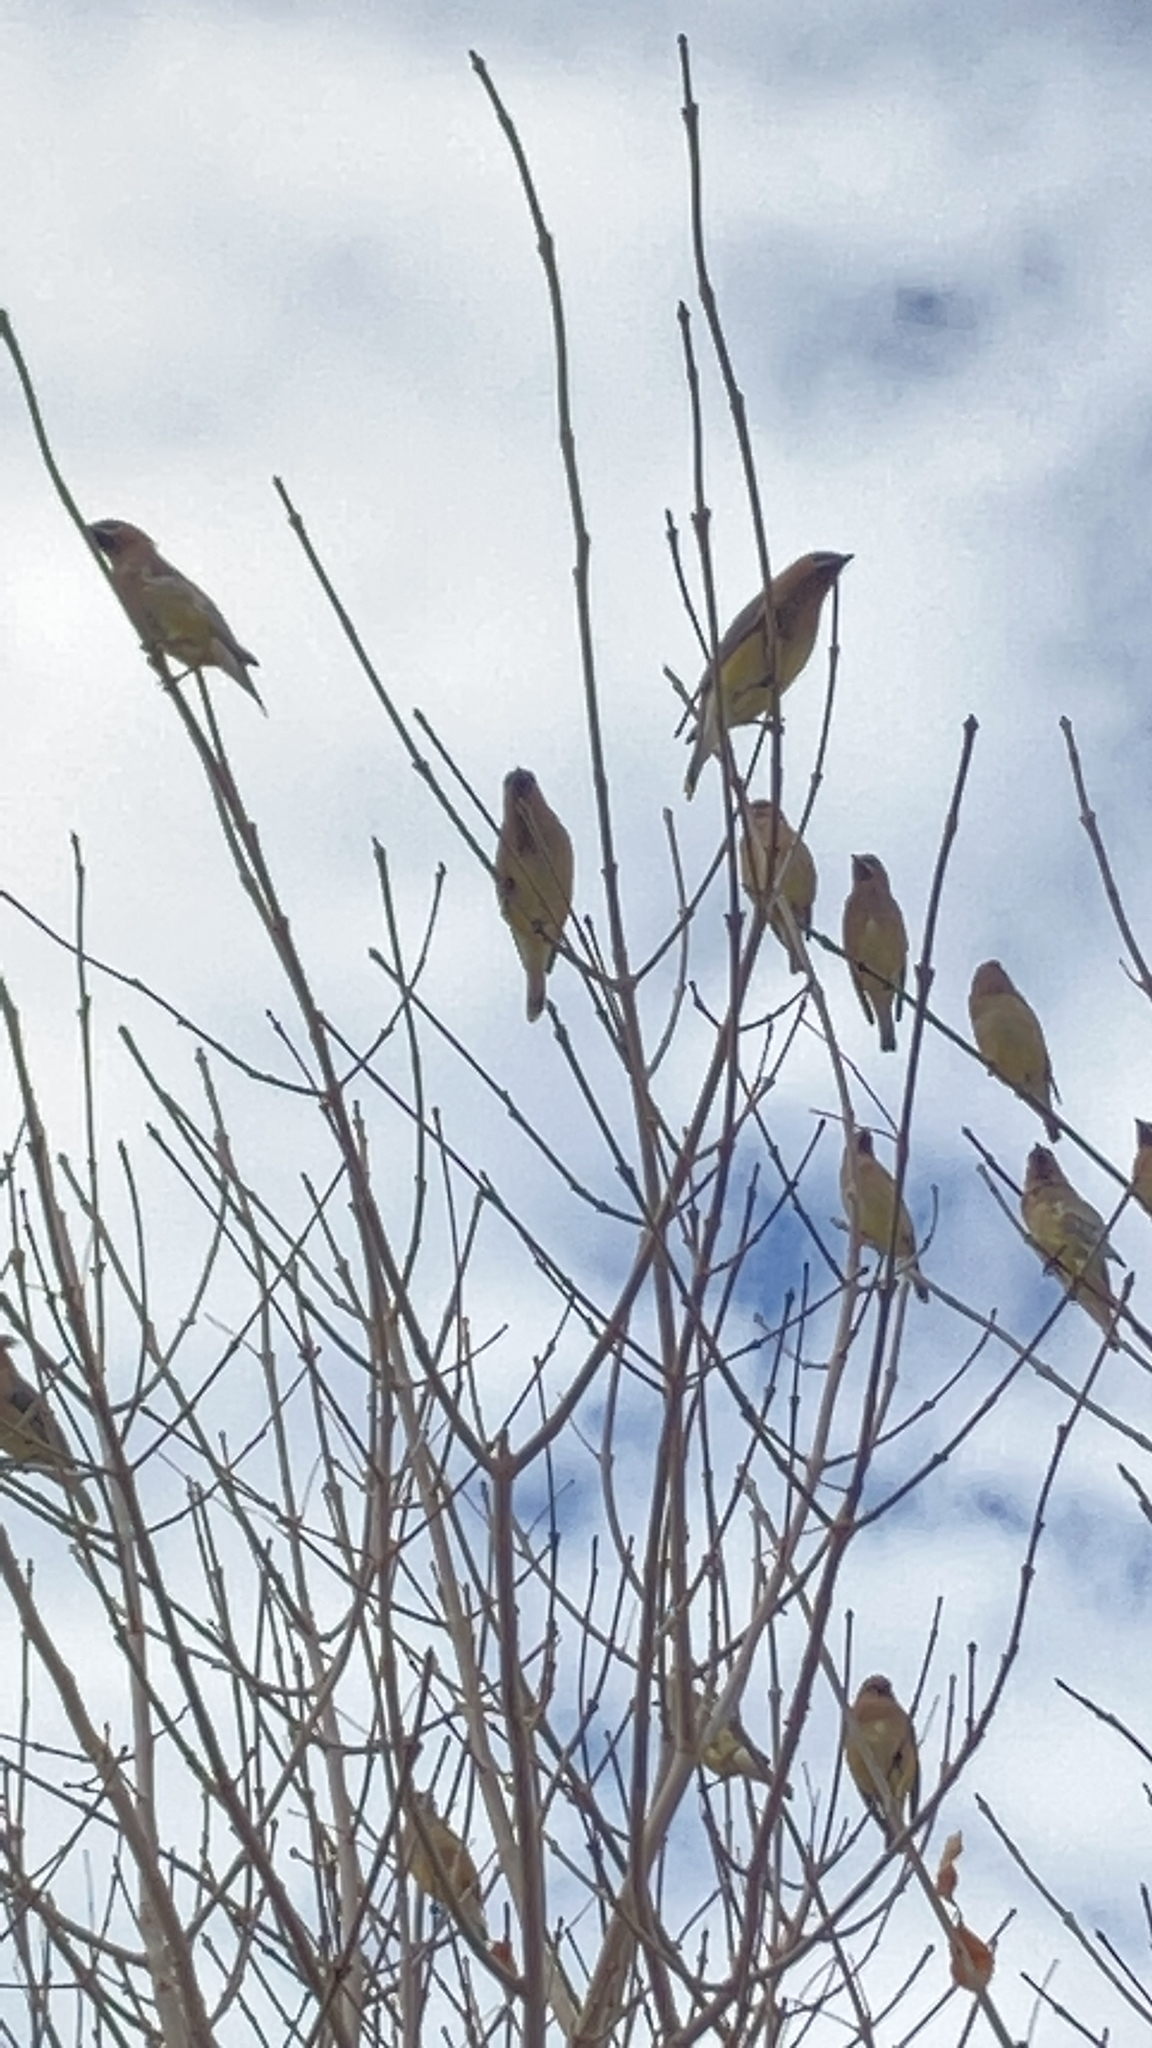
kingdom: Animalia
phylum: Chordata
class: Aves
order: Passeriformes
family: Bombycillidae
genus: Bombycilla
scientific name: Bombycilla cedrorum
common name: Cedar waxwing
